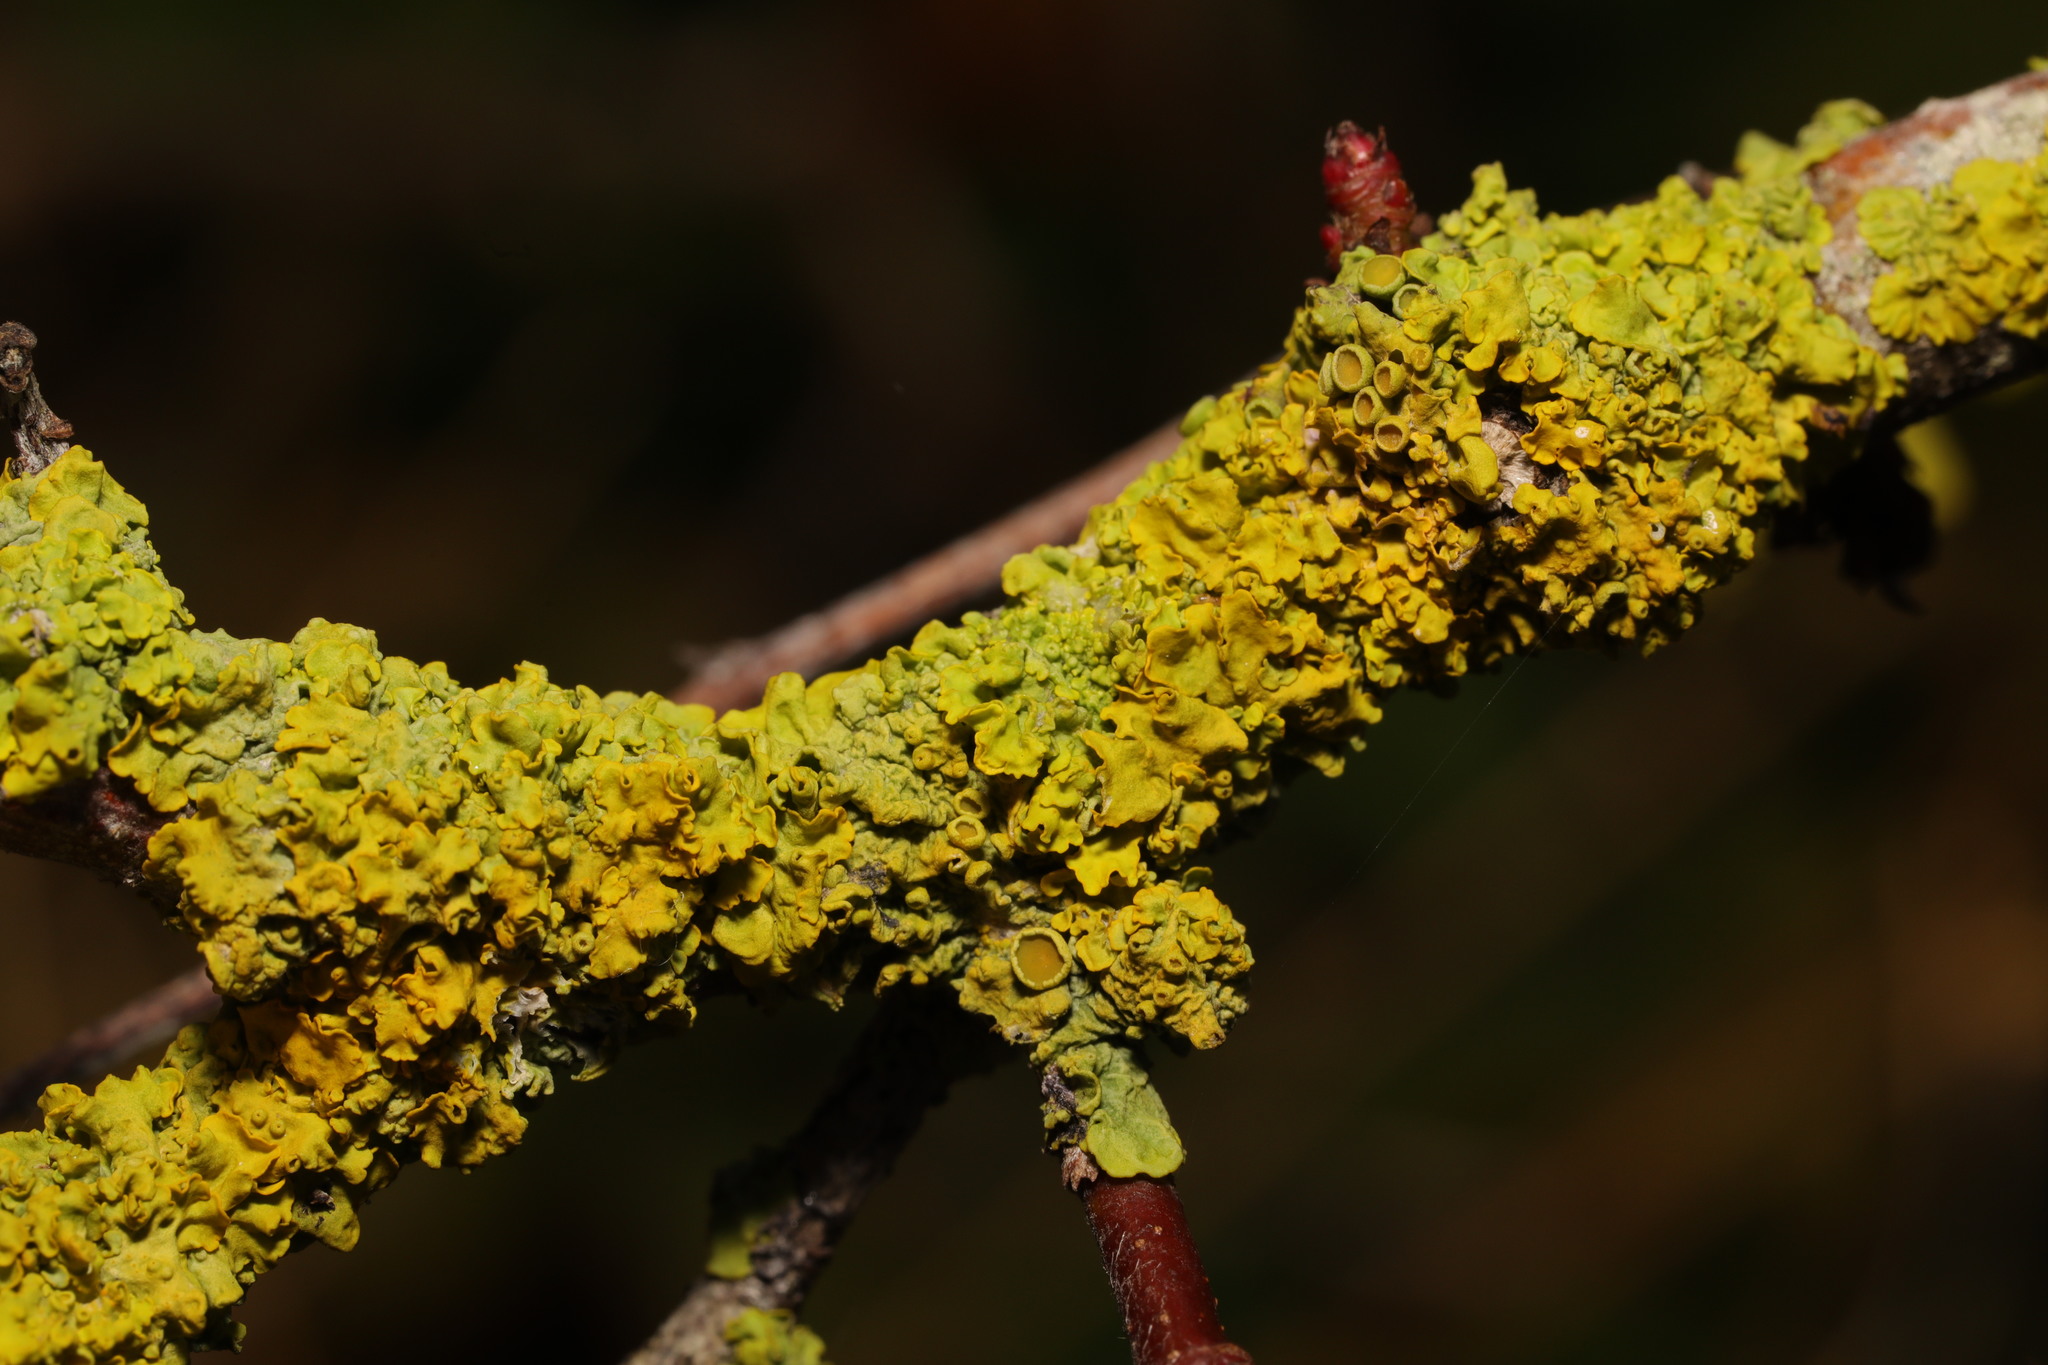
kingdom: Fungi
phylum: Ascomycota
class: Lecanoromycetes
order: Teloschistales
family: Teloschistaceae
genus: Xanthoria
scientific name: Xanthoria parietina
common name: Common orange lichen
